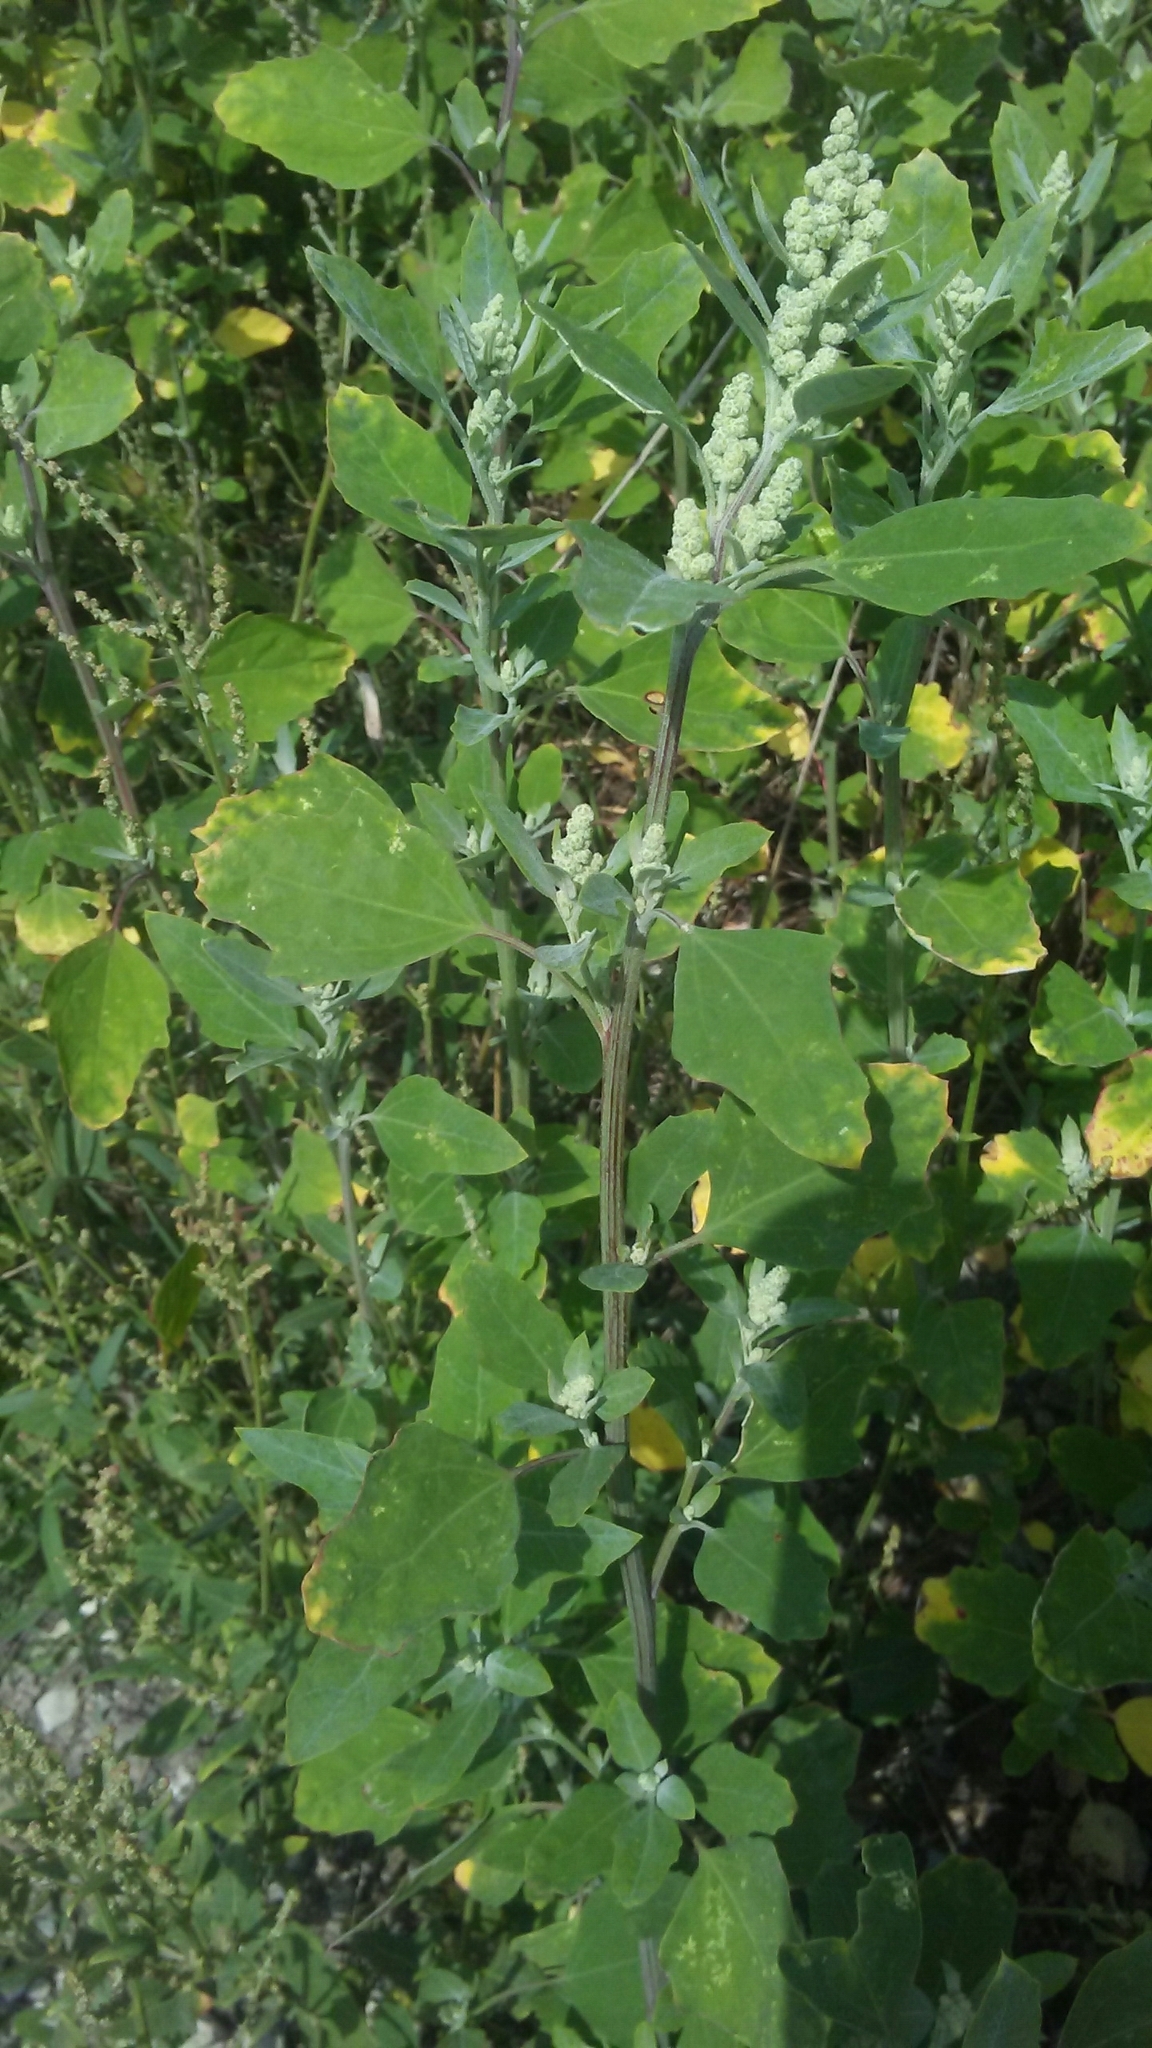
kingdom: Plantae
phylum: Tracheophyta
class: Magnoliopsida
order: Caryophyllales
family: Amaranthaceae
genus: Chenopodium
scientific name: Chenopodium album
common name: Fat-hen
